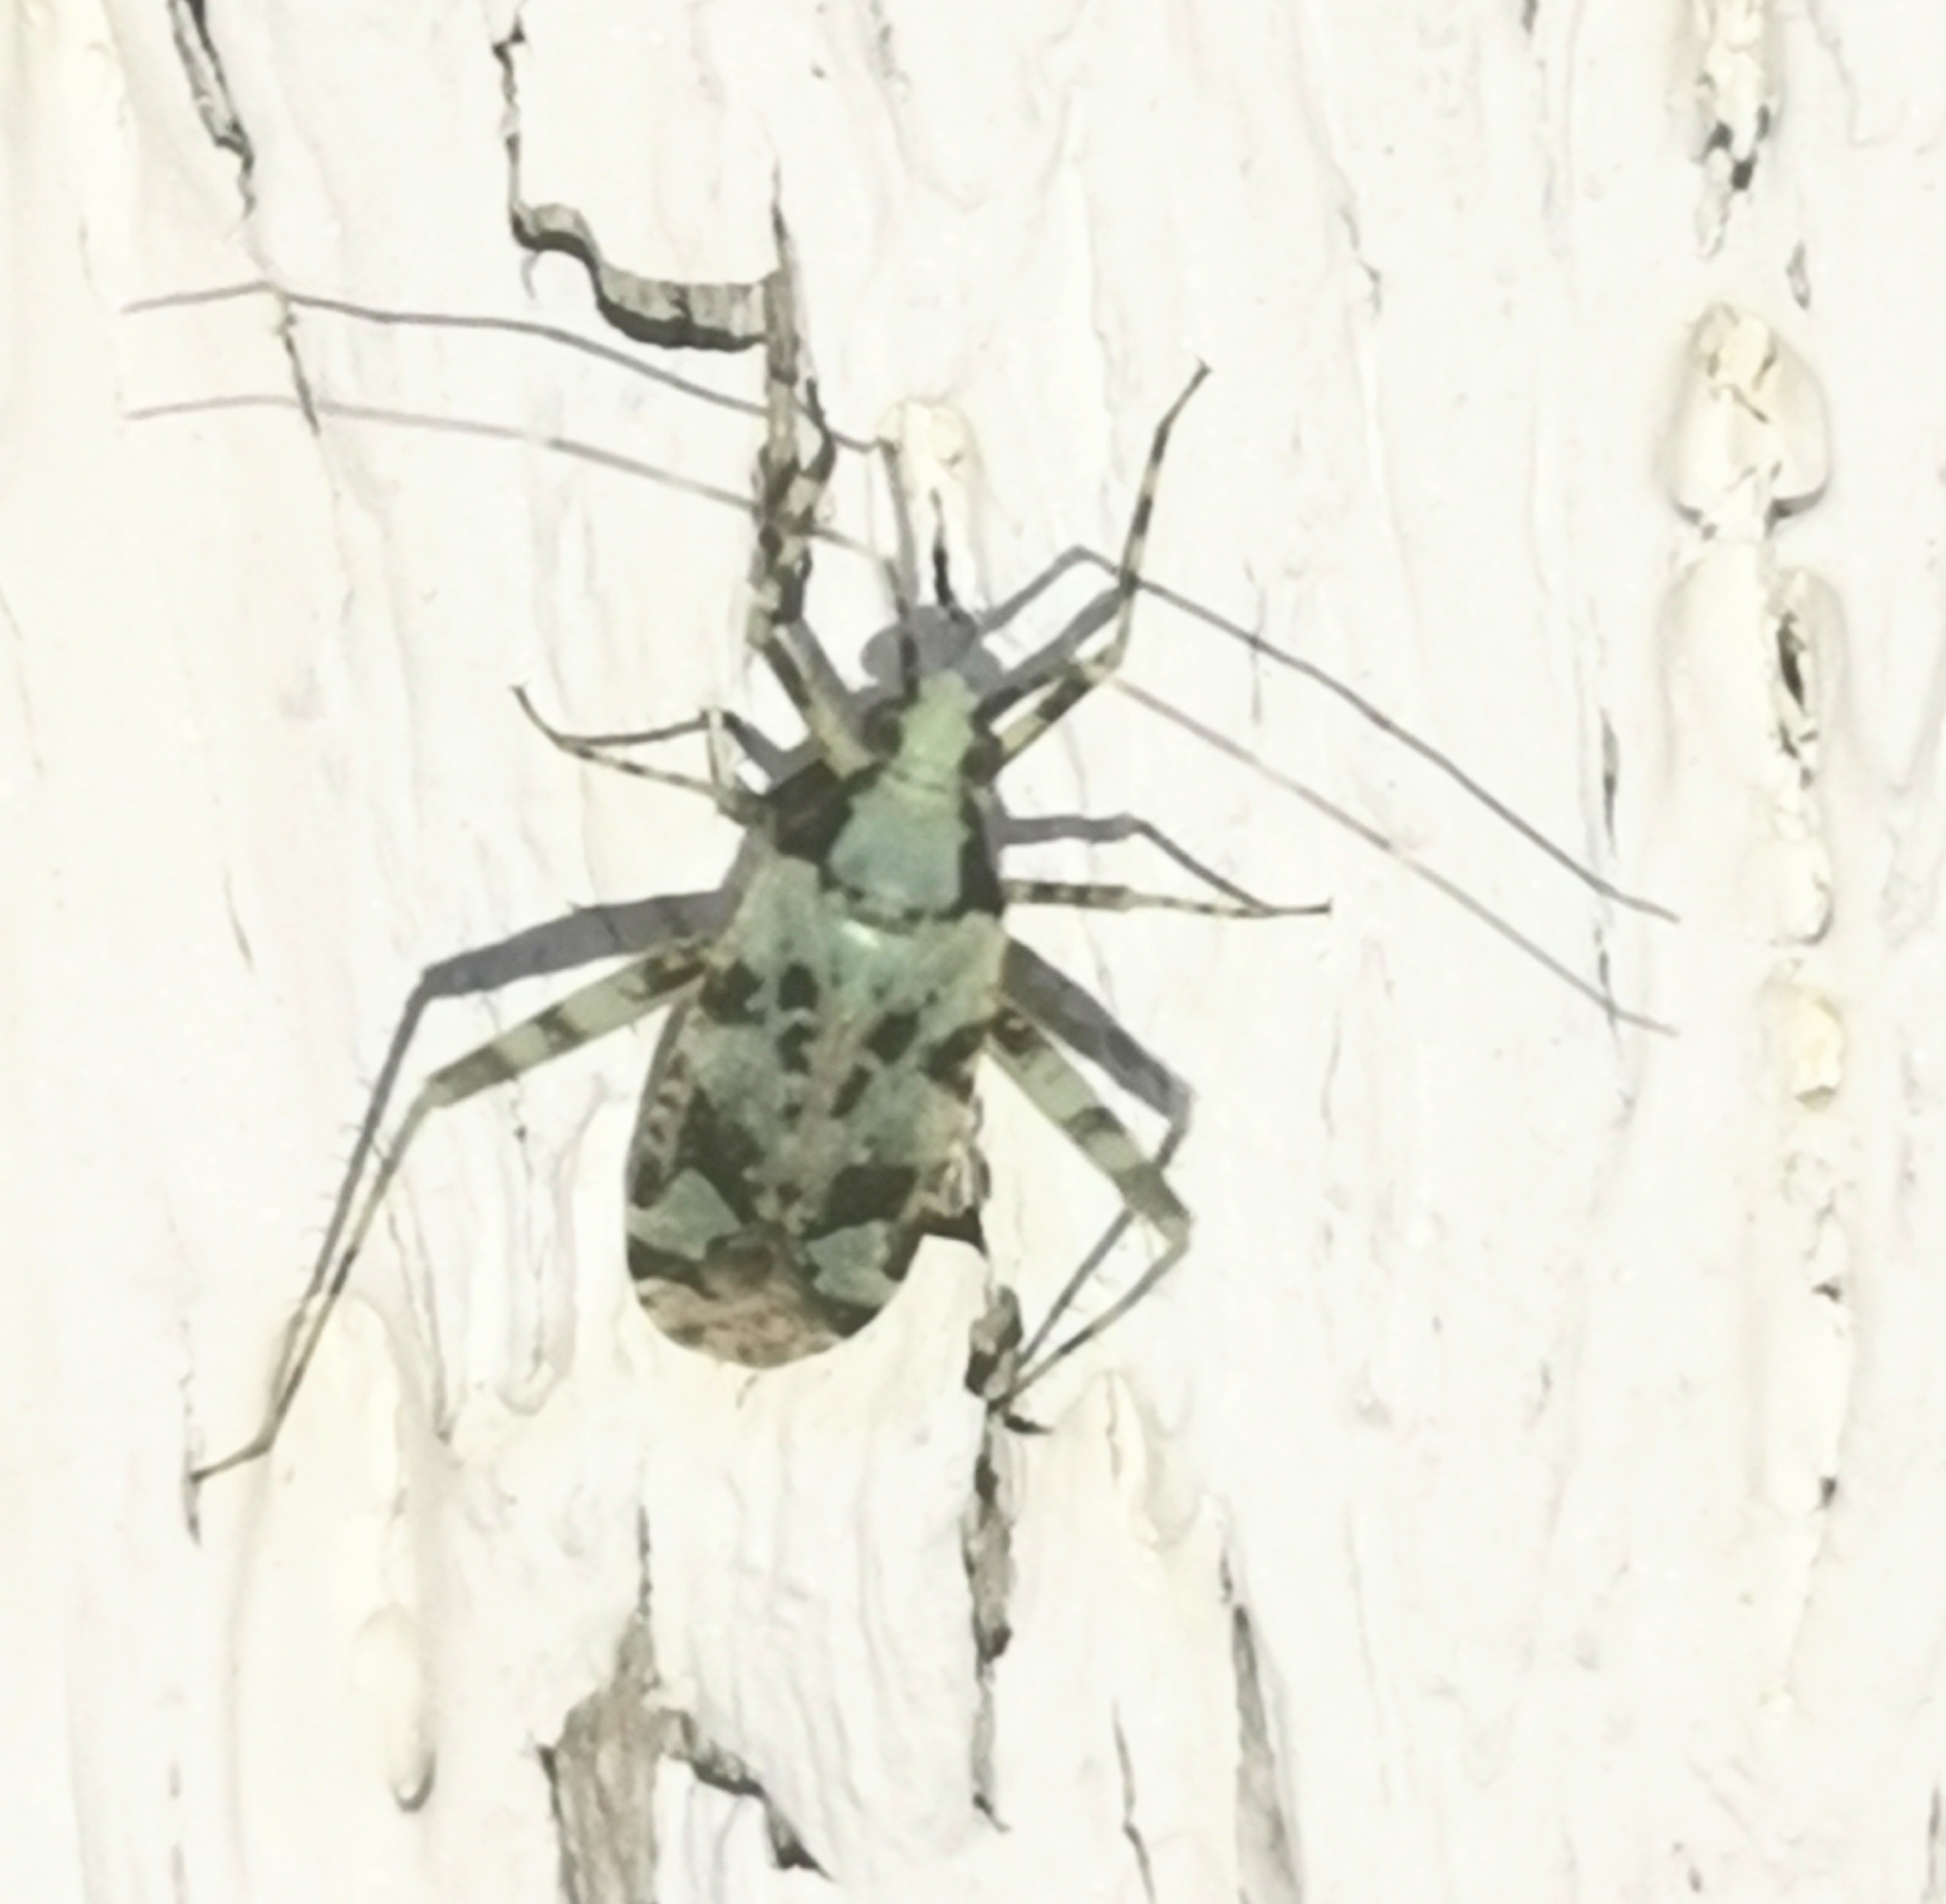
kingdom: Animalia
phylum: Arthropoda
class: Insecta
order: Hemiptera
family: Miridae
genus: Phytocoris
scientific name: Phytocoris tiliae
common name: Plant bug
